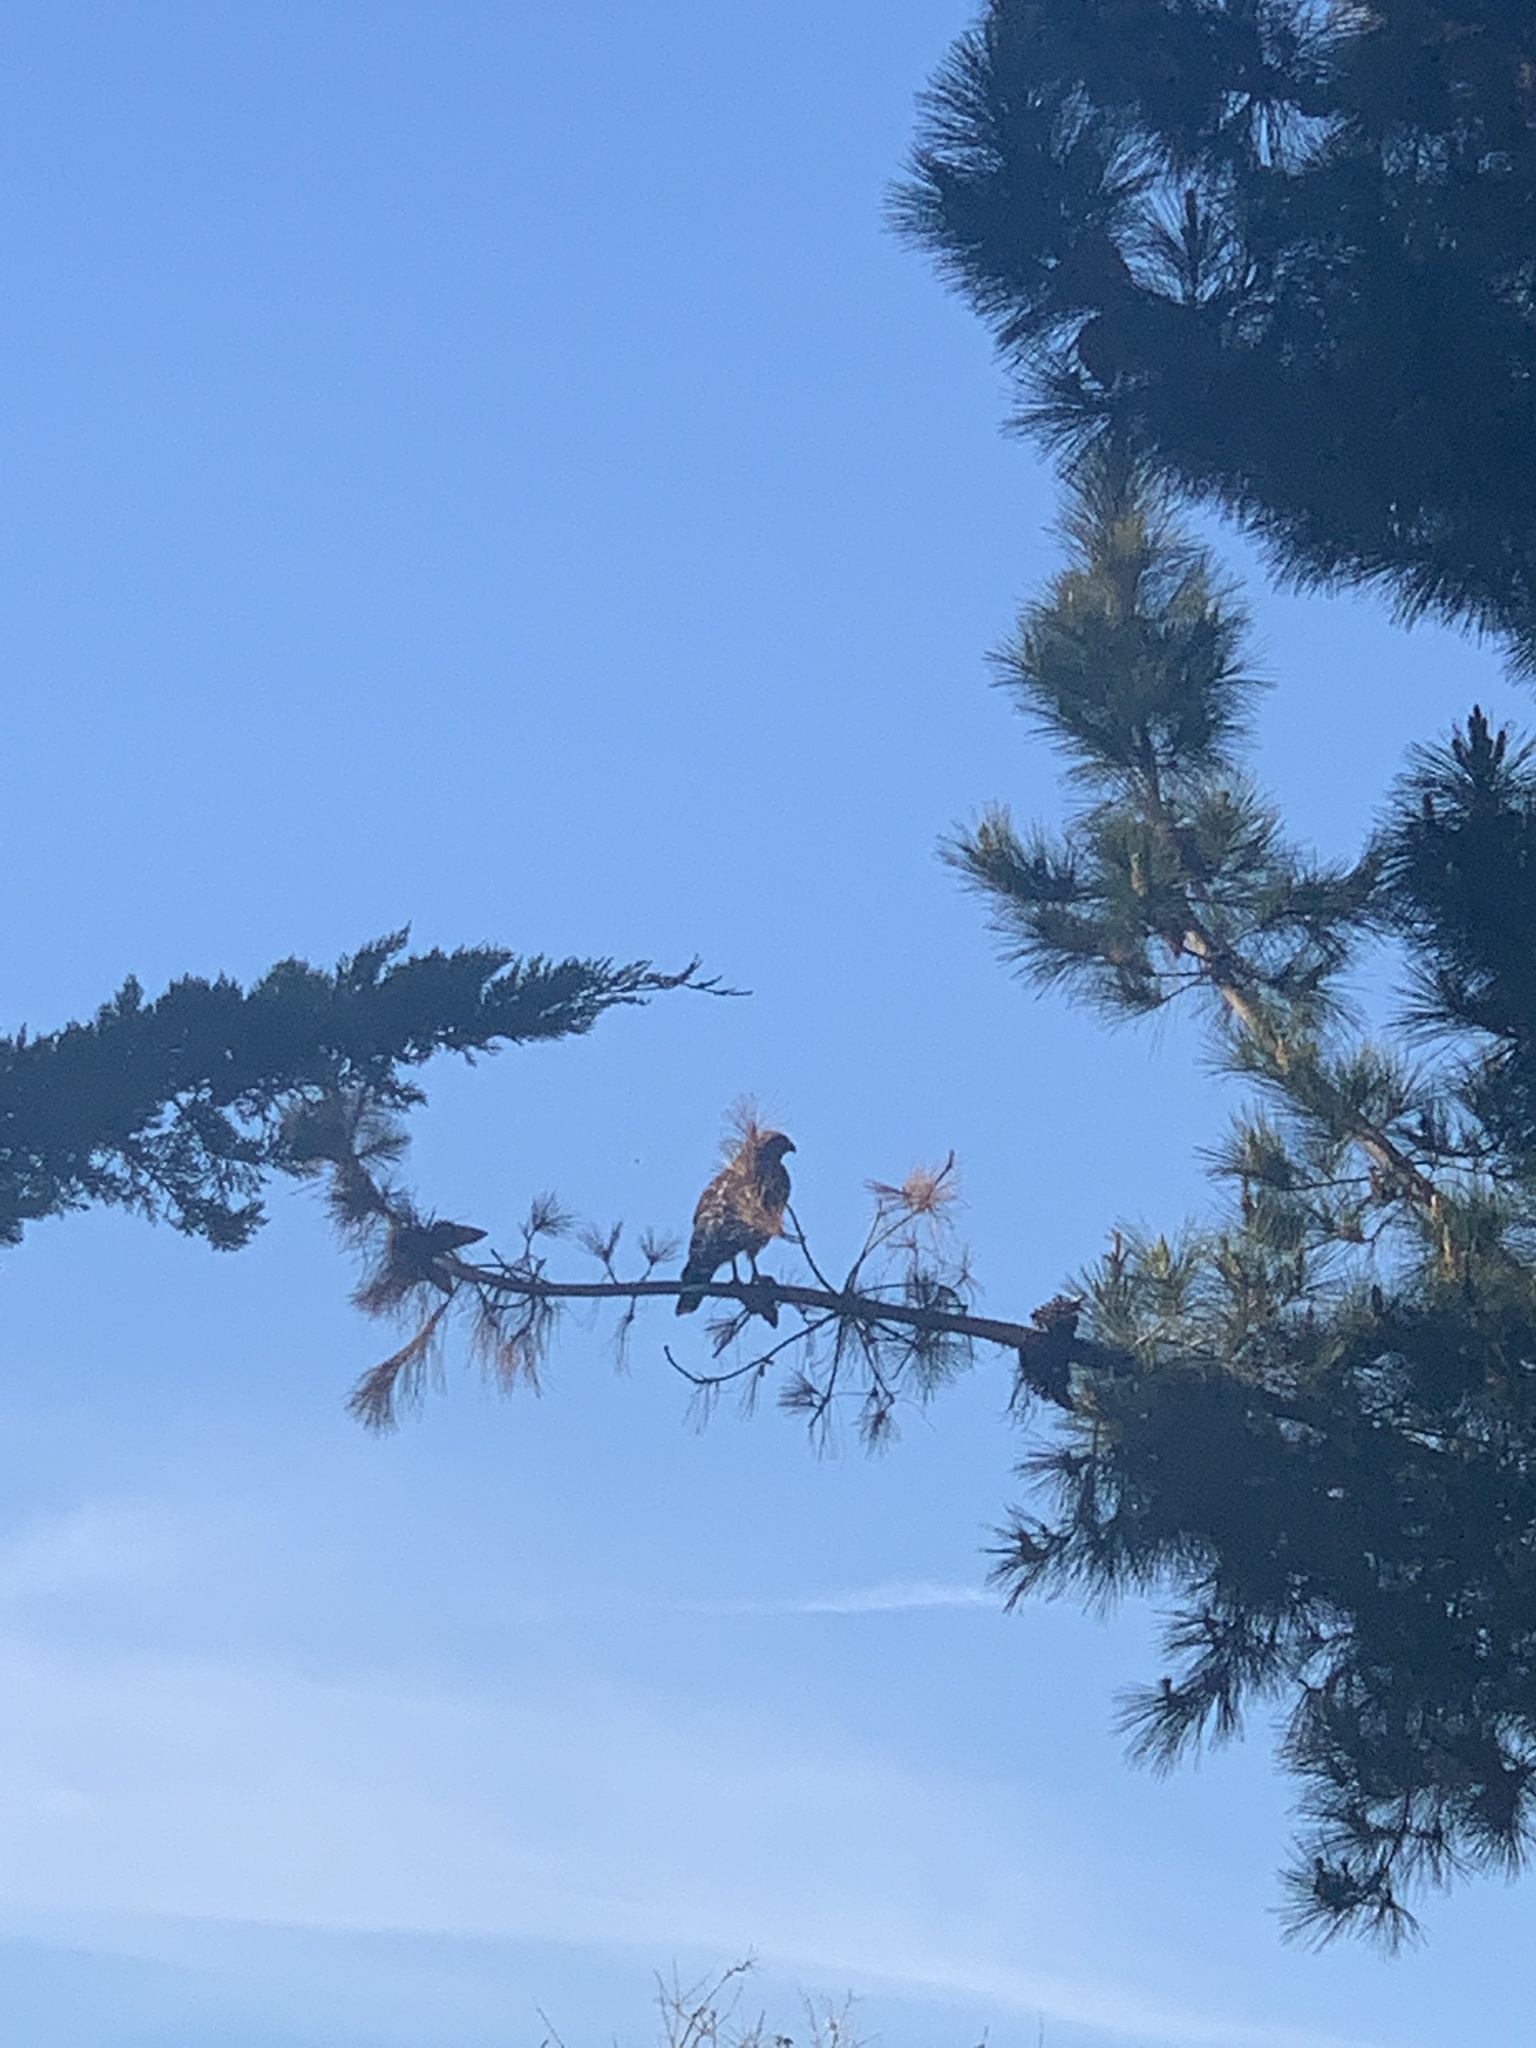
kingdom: Animalia
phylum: Chordata
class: Aves
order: Accipitriformes
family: Accipitridae
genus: Buteo
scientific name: Buteo lineatus
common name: Red-shouldered hawk
